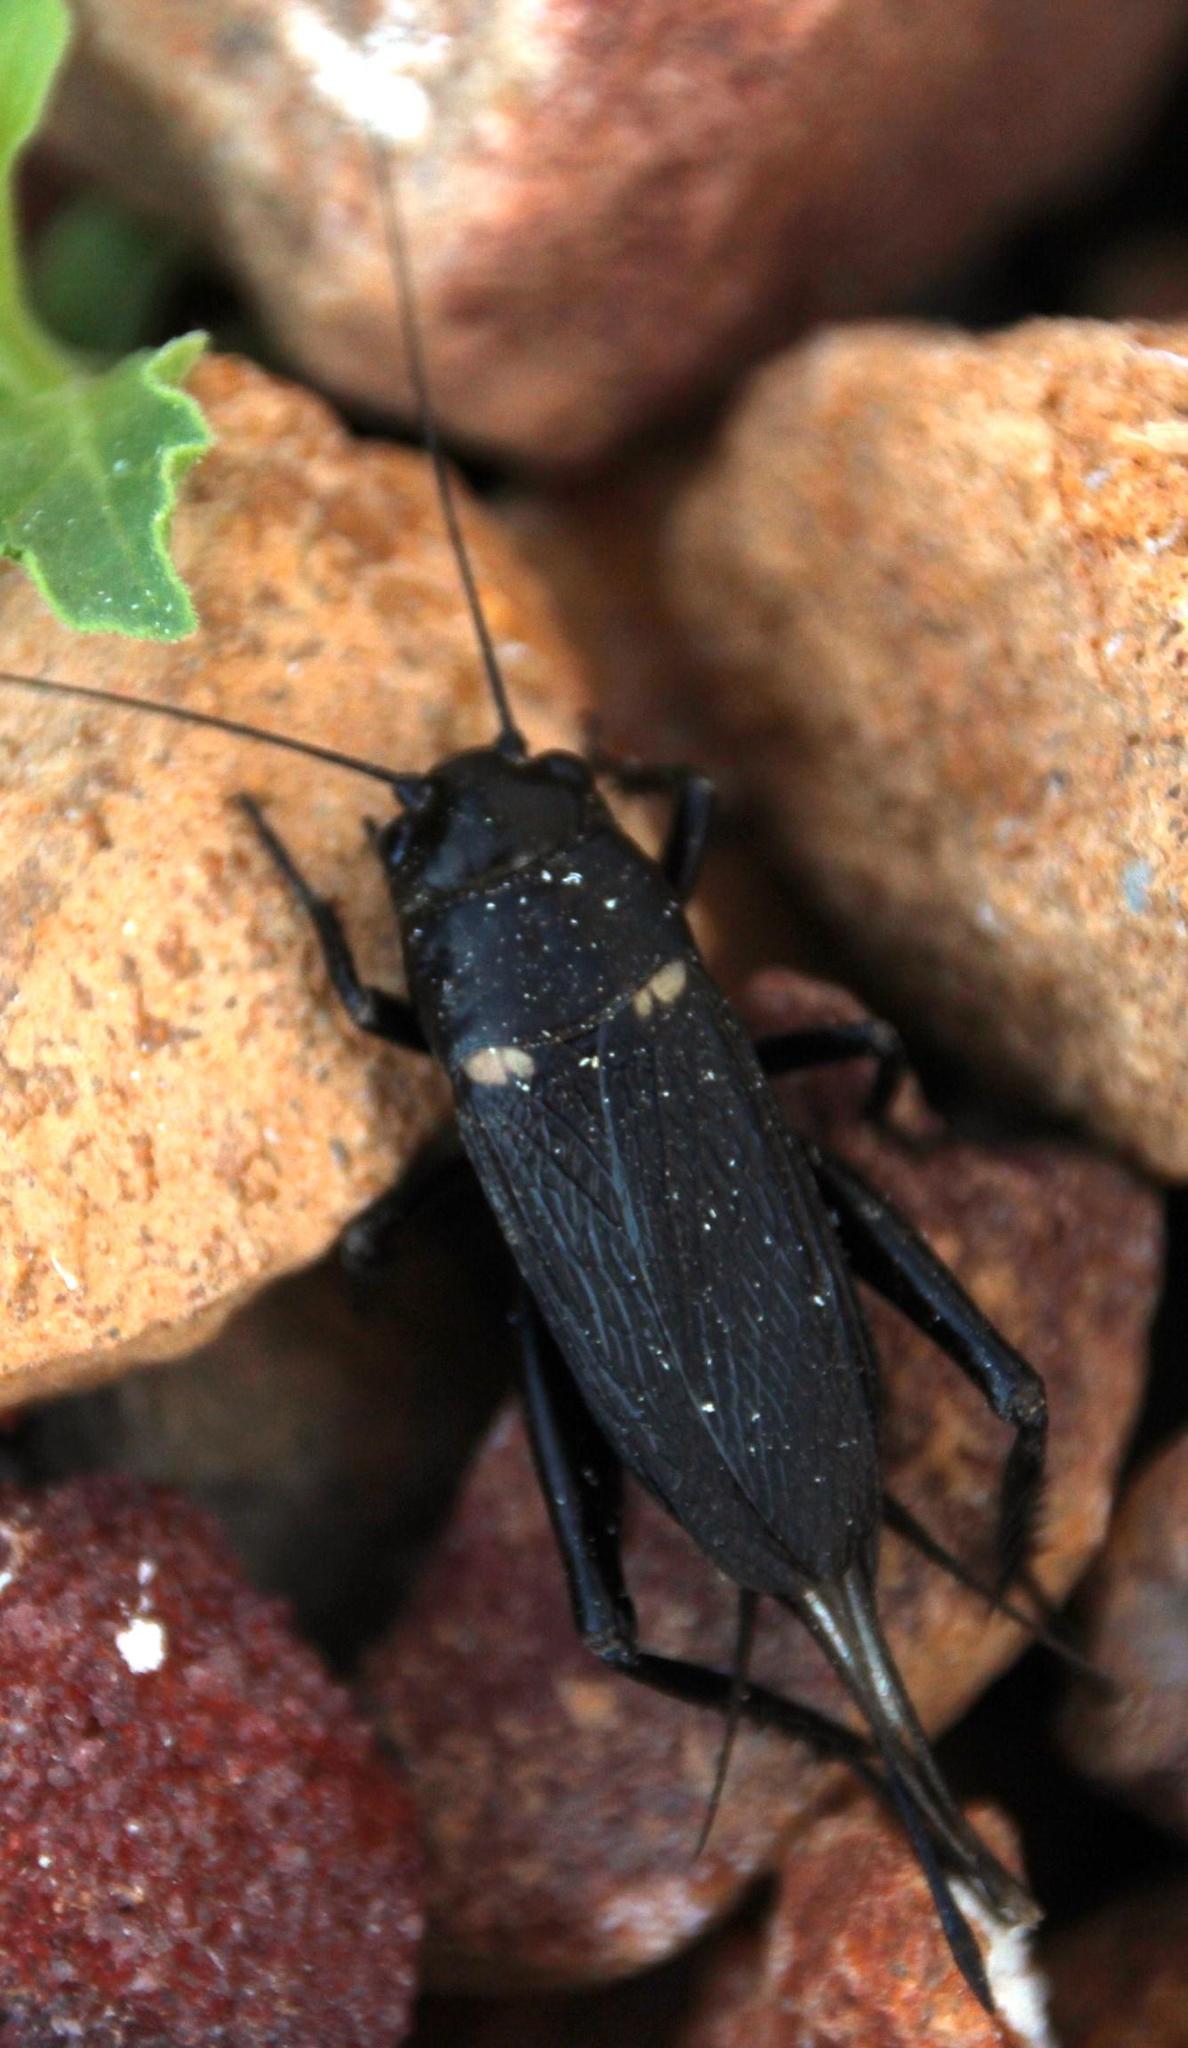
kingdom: Animalia
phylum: Arthropoda
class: Insecta
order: Orthoptera
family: Gryllidae
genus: Gryllus
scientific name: Gryllus bimaculatus
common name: Two-spotted cricket
